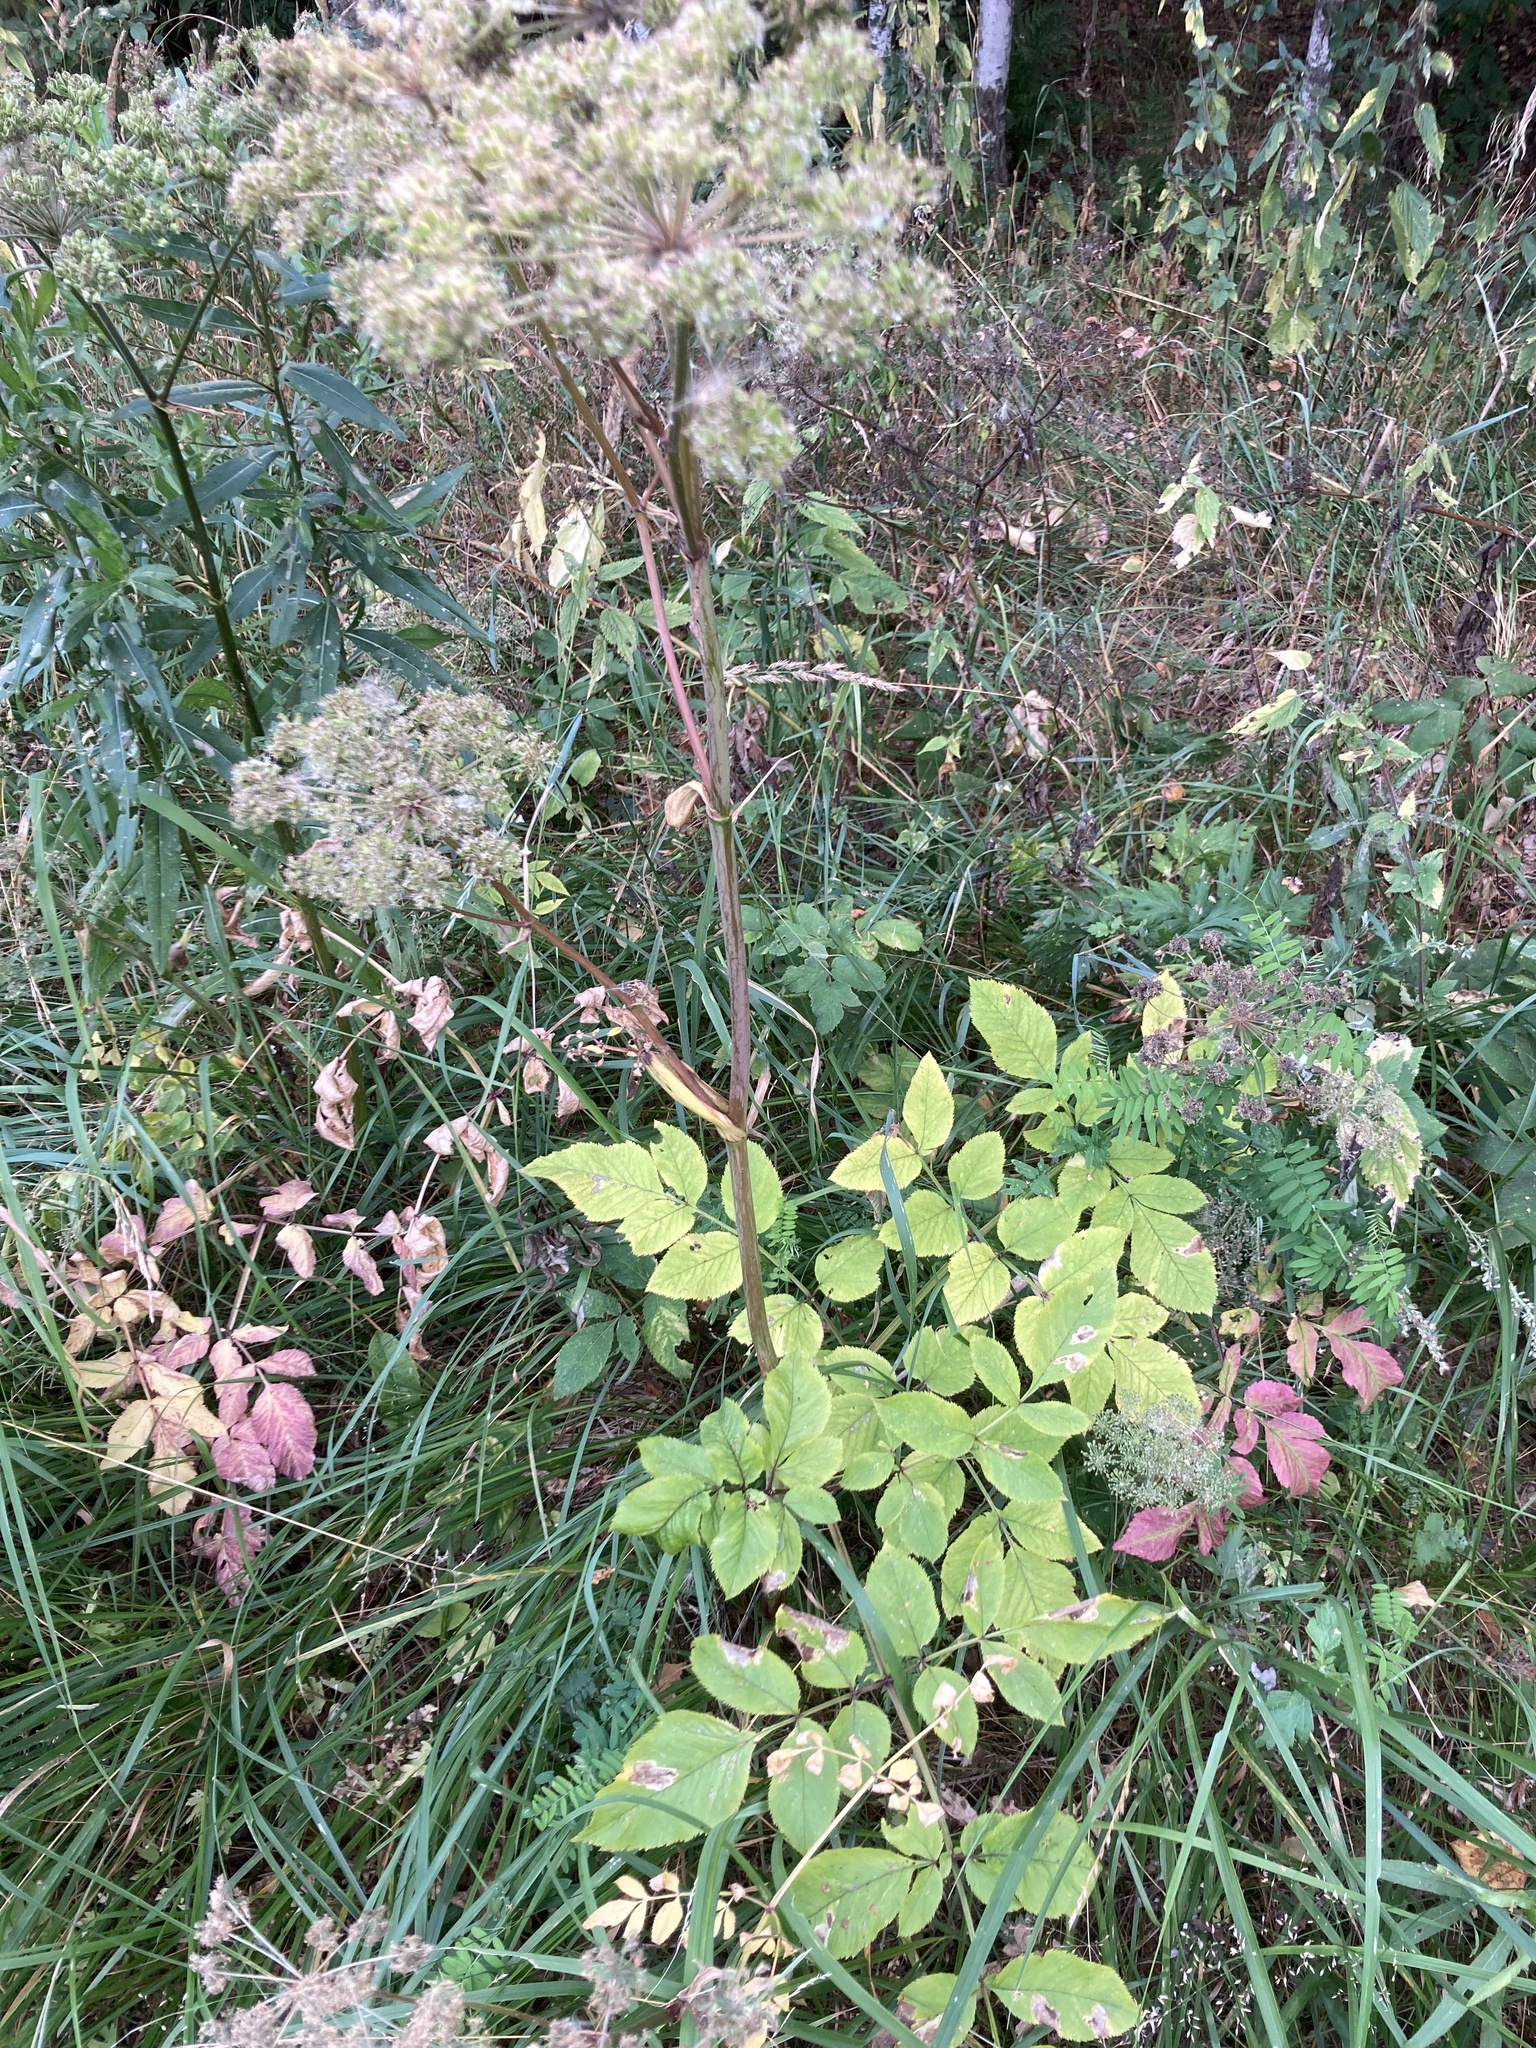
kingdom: Plantae
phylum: Tracheophyta
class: Magnoliopsida
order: Apiales
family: Apiaceae
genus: Angelica
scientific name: Angelica sylvestris
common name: Wild angelica
